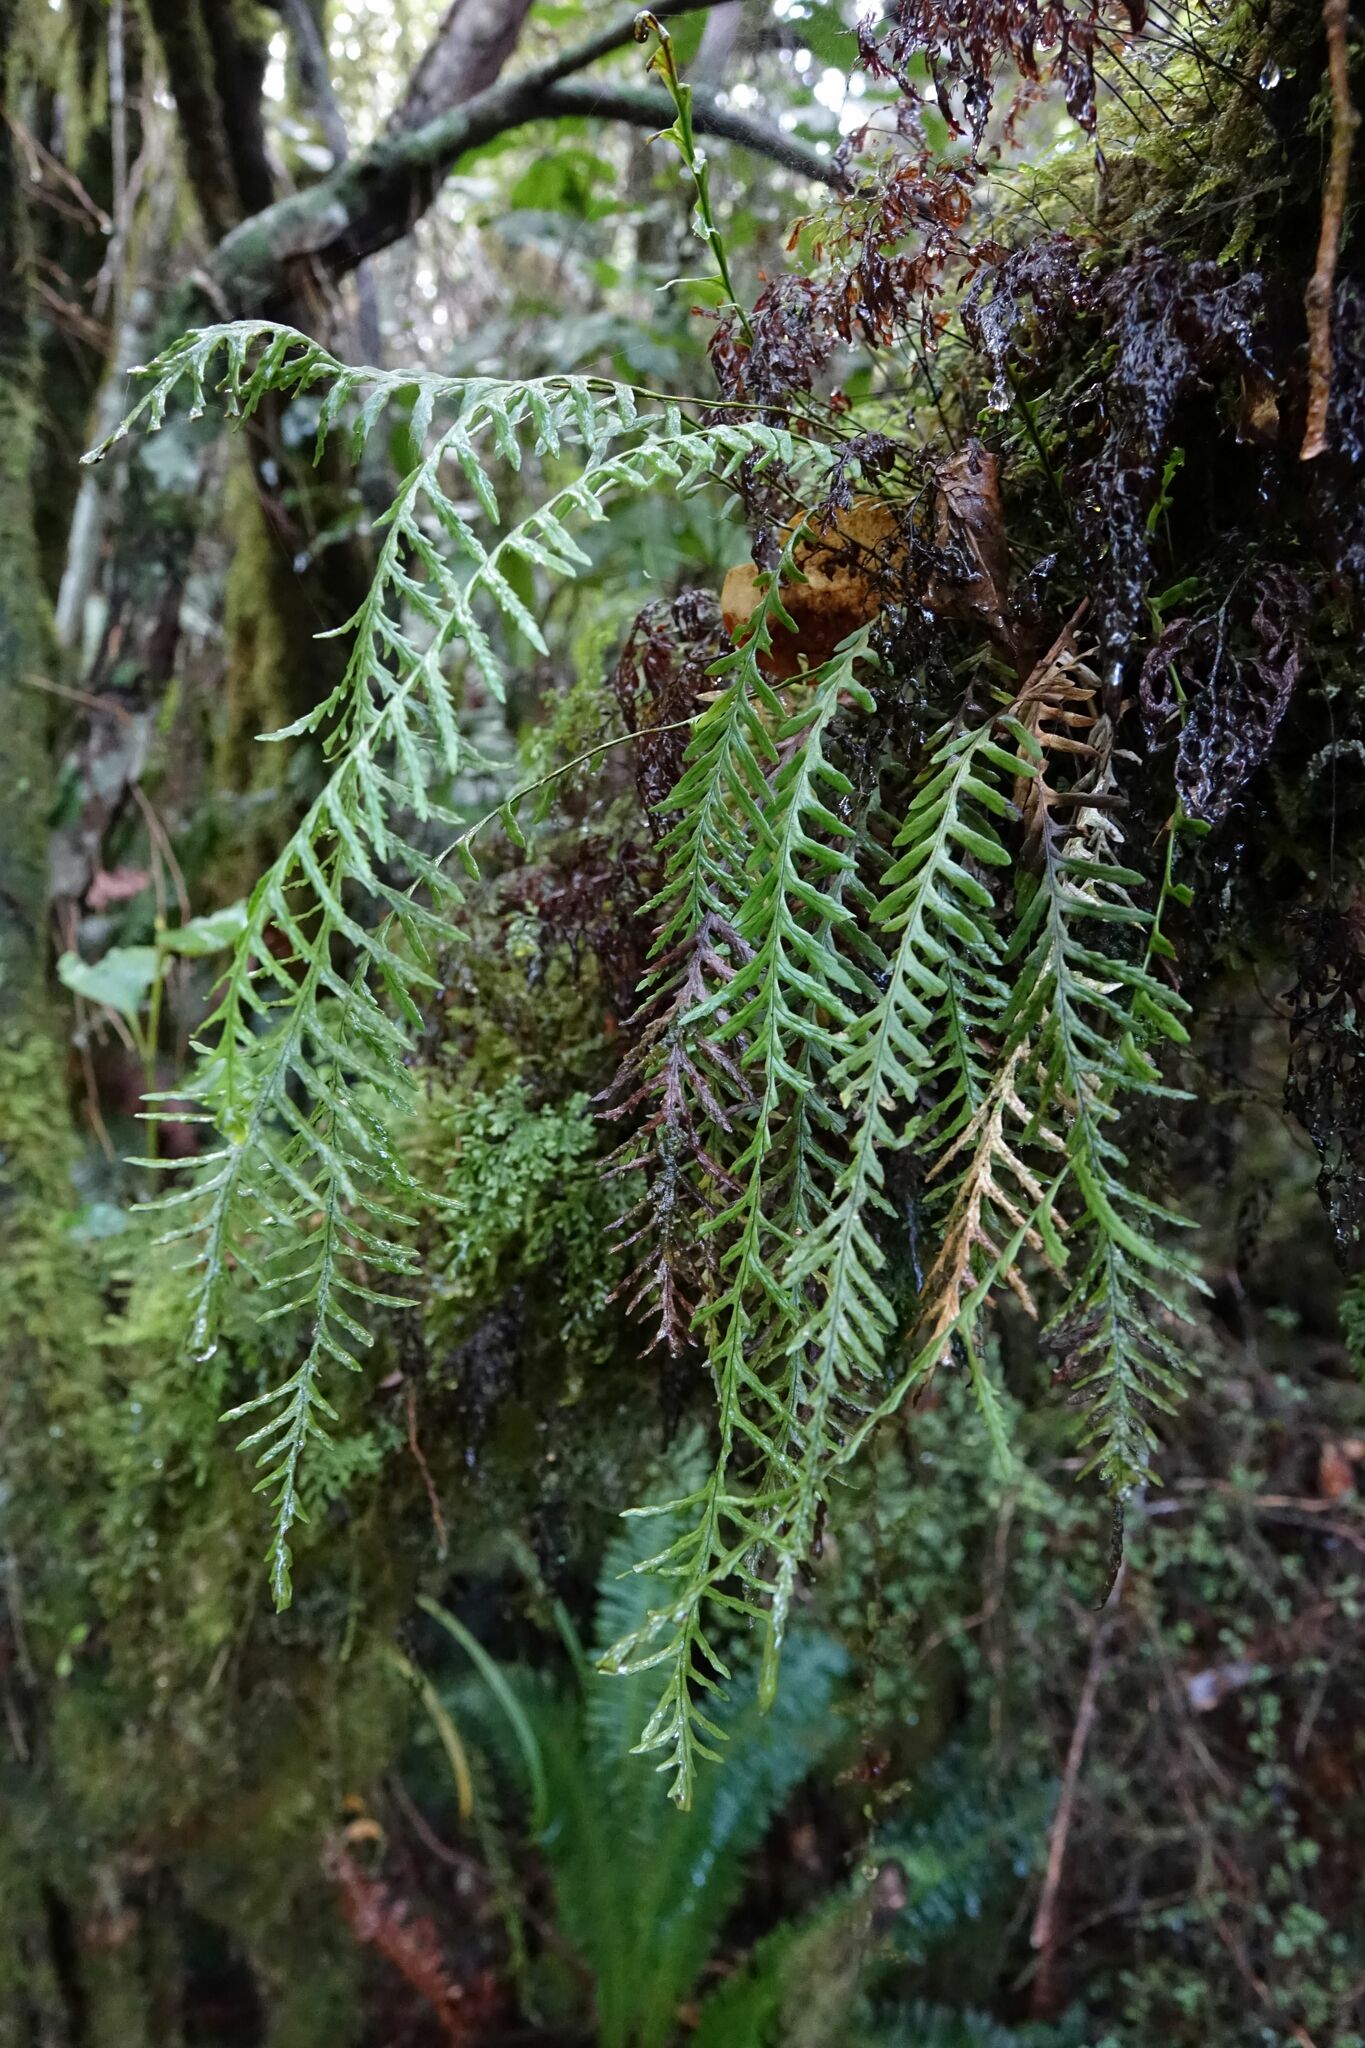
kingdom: Plantae
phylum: Tracheophyta
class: Polypodiopsida
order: Polypodiales
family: Polypodiaceae
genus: Notogrammitis
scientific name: Notogrammitis heterophylla
